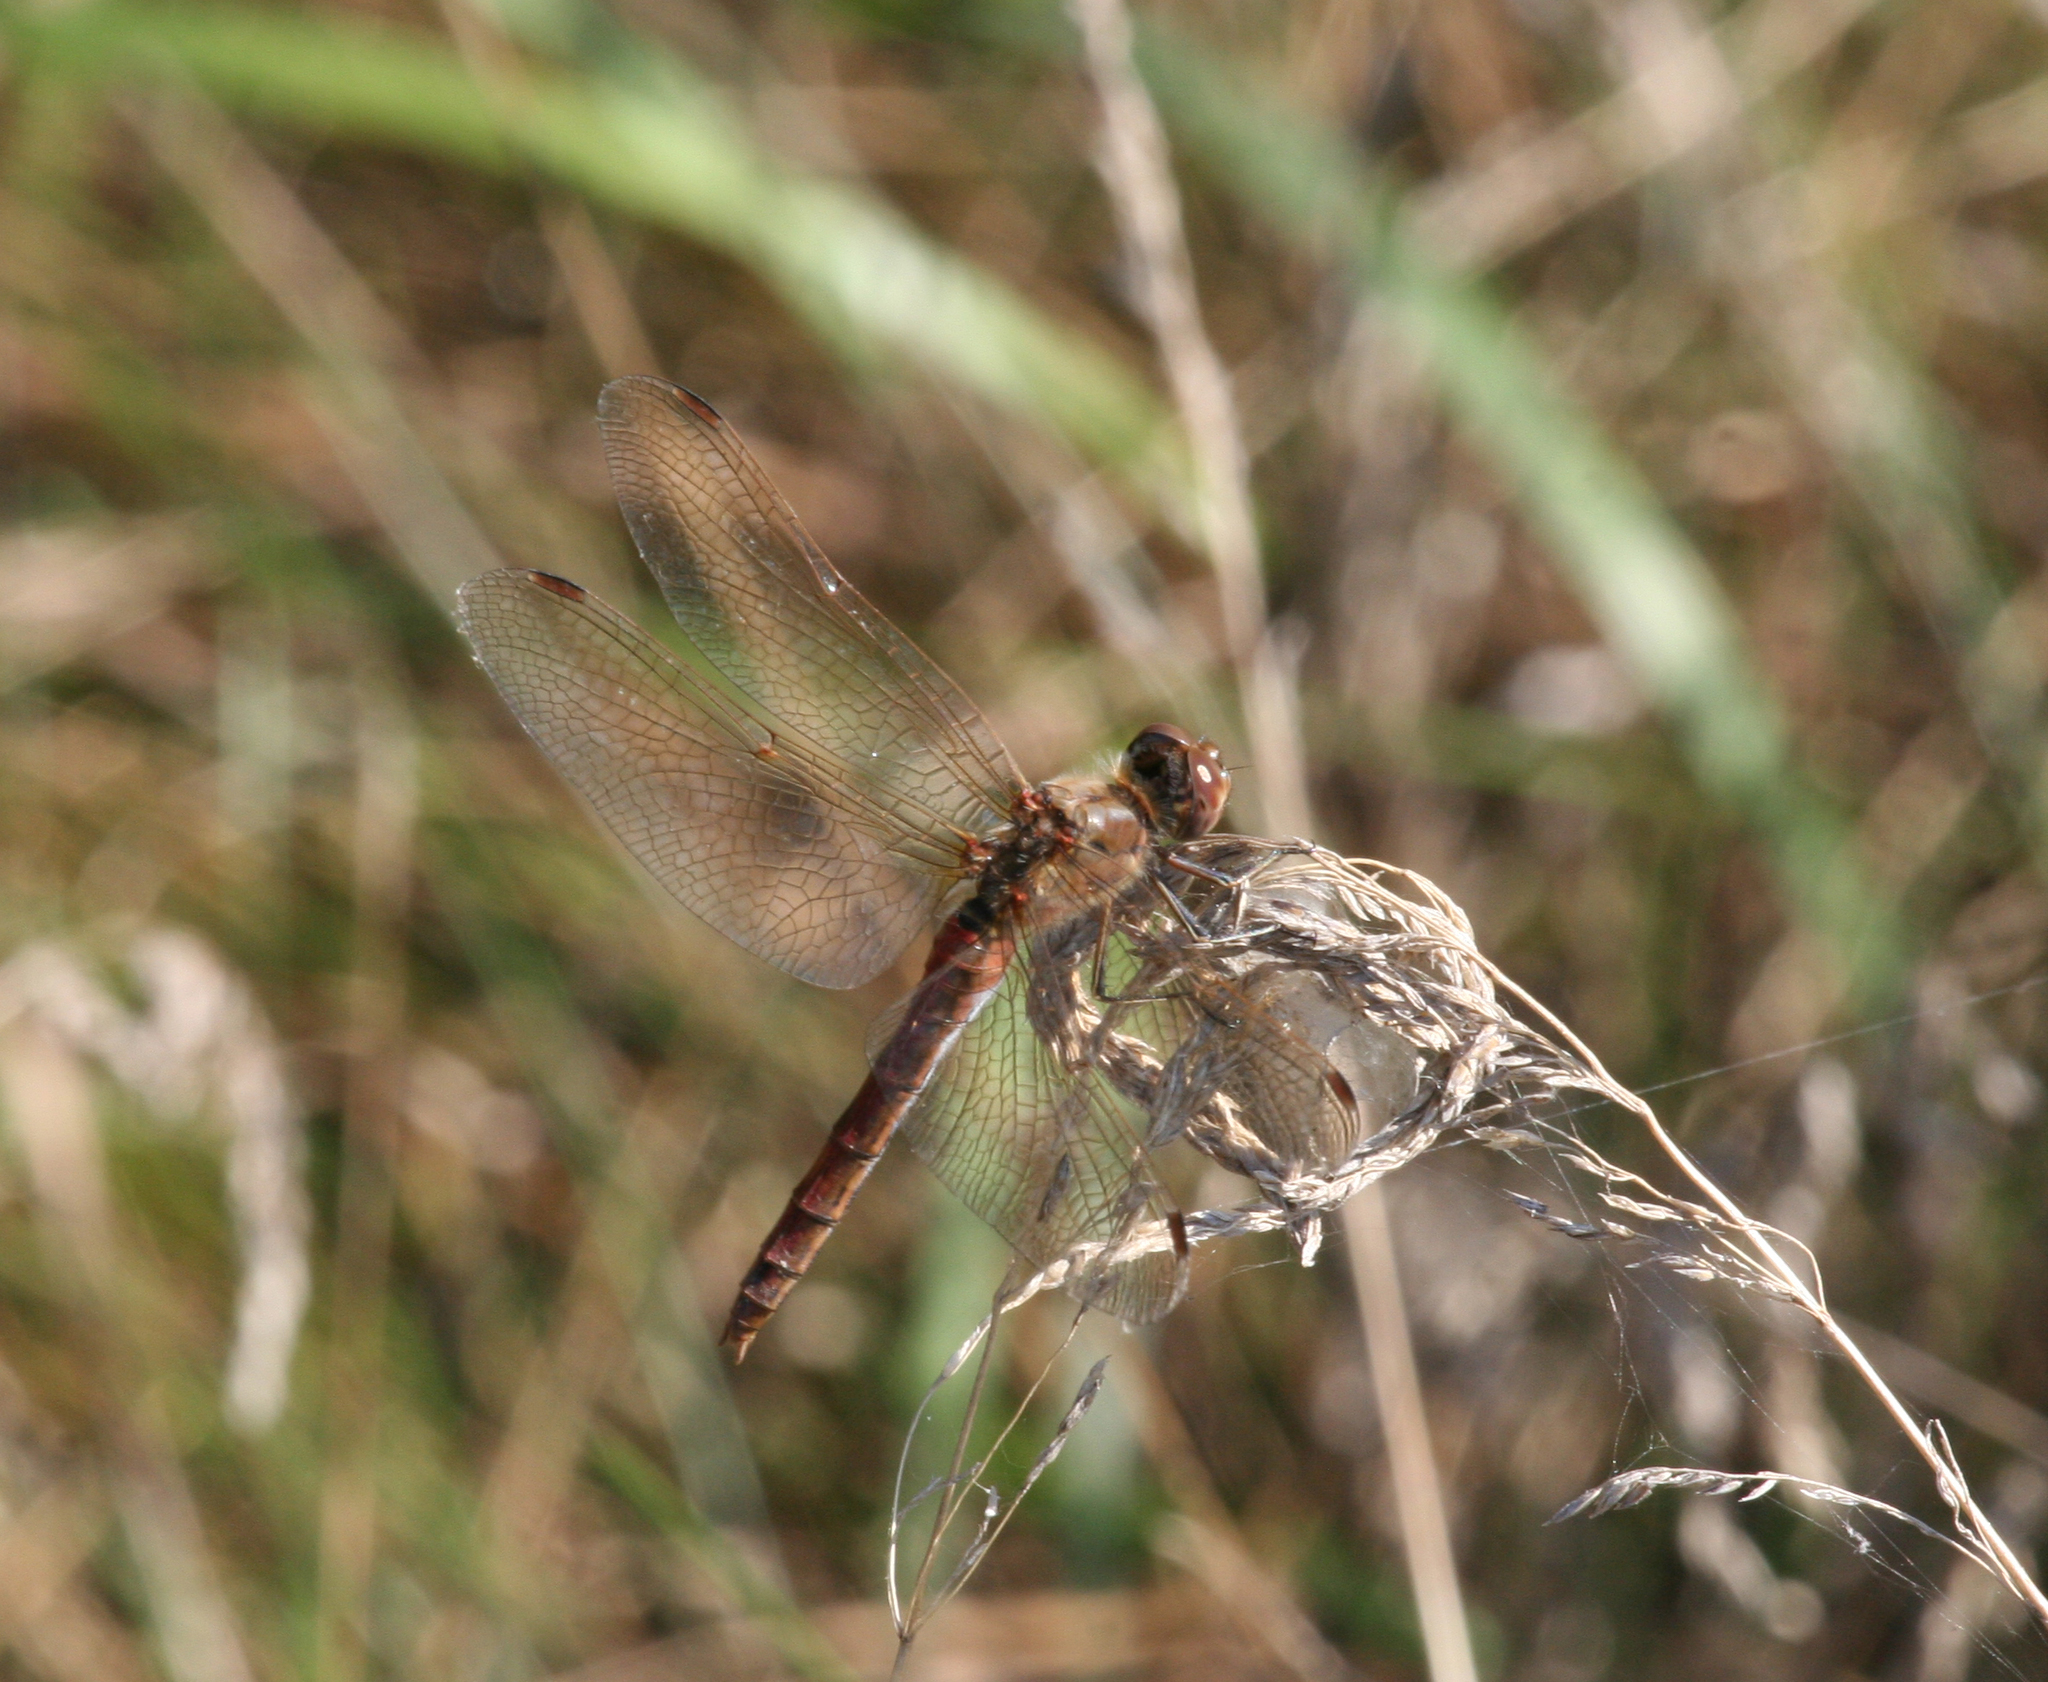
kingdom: Animalia
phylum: Arthropoda
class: Insecta
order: Odonata
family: Libellulidae
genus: Sympetrum
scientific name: Sympetrum vulgatum
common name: Vagrant darter
